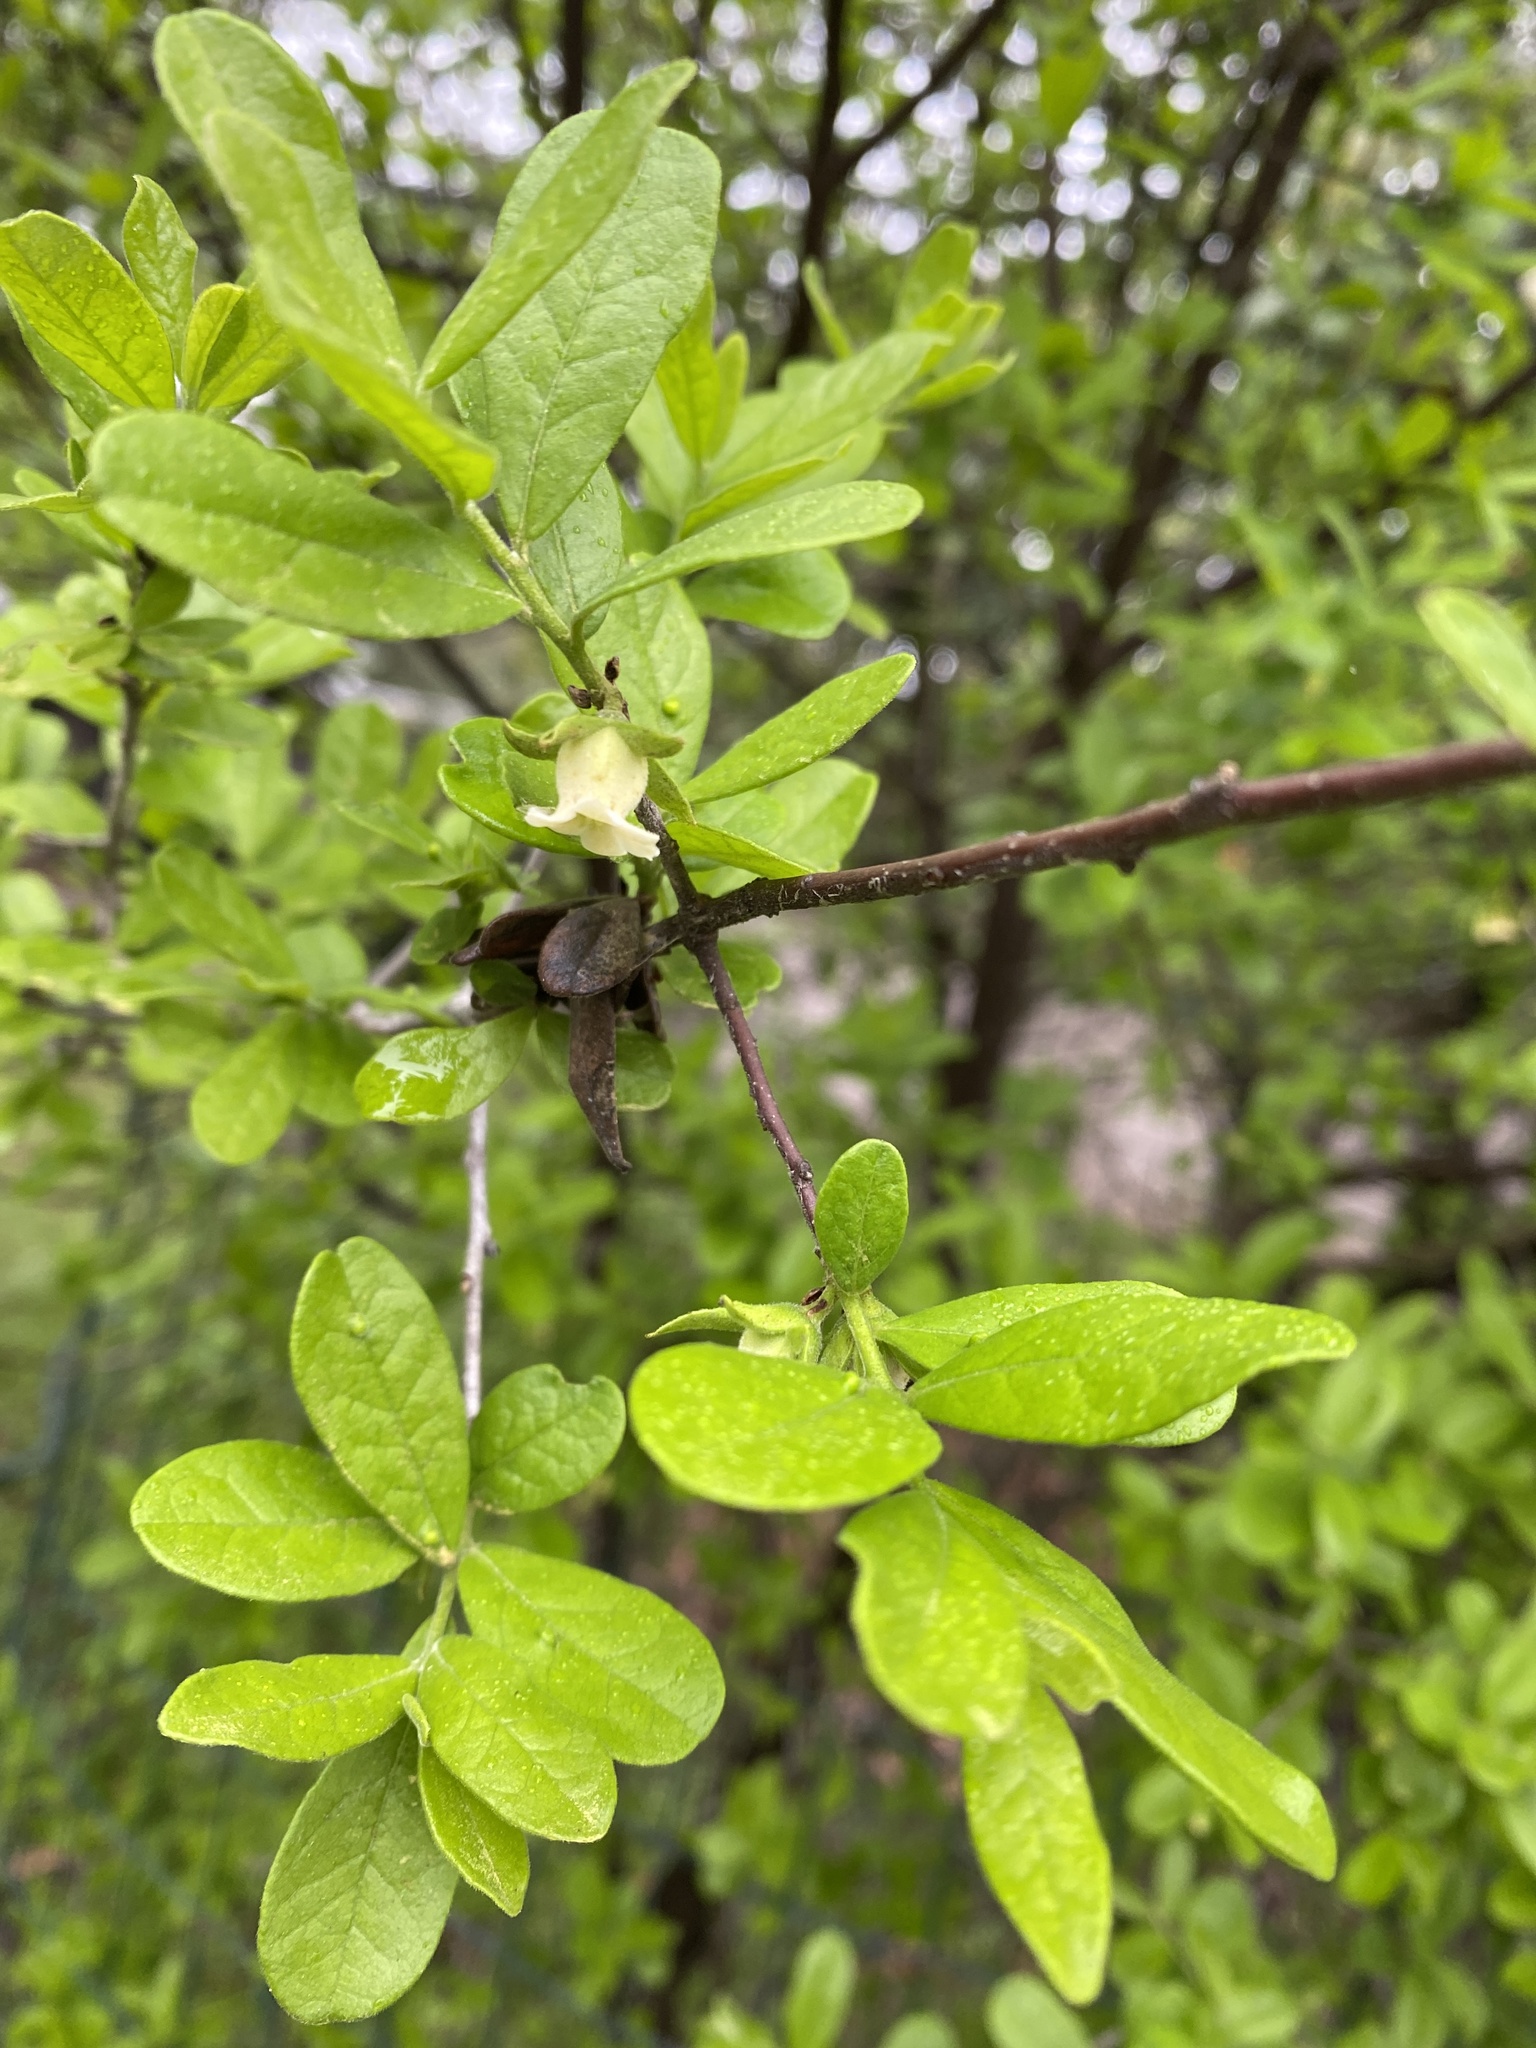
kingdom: Plantae
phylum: Tracheophyta
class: Magnoliopsida
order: Ericales
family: Ebenaceae
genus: Diospyros
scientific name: Diospyros texana
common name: Texas persimmon
